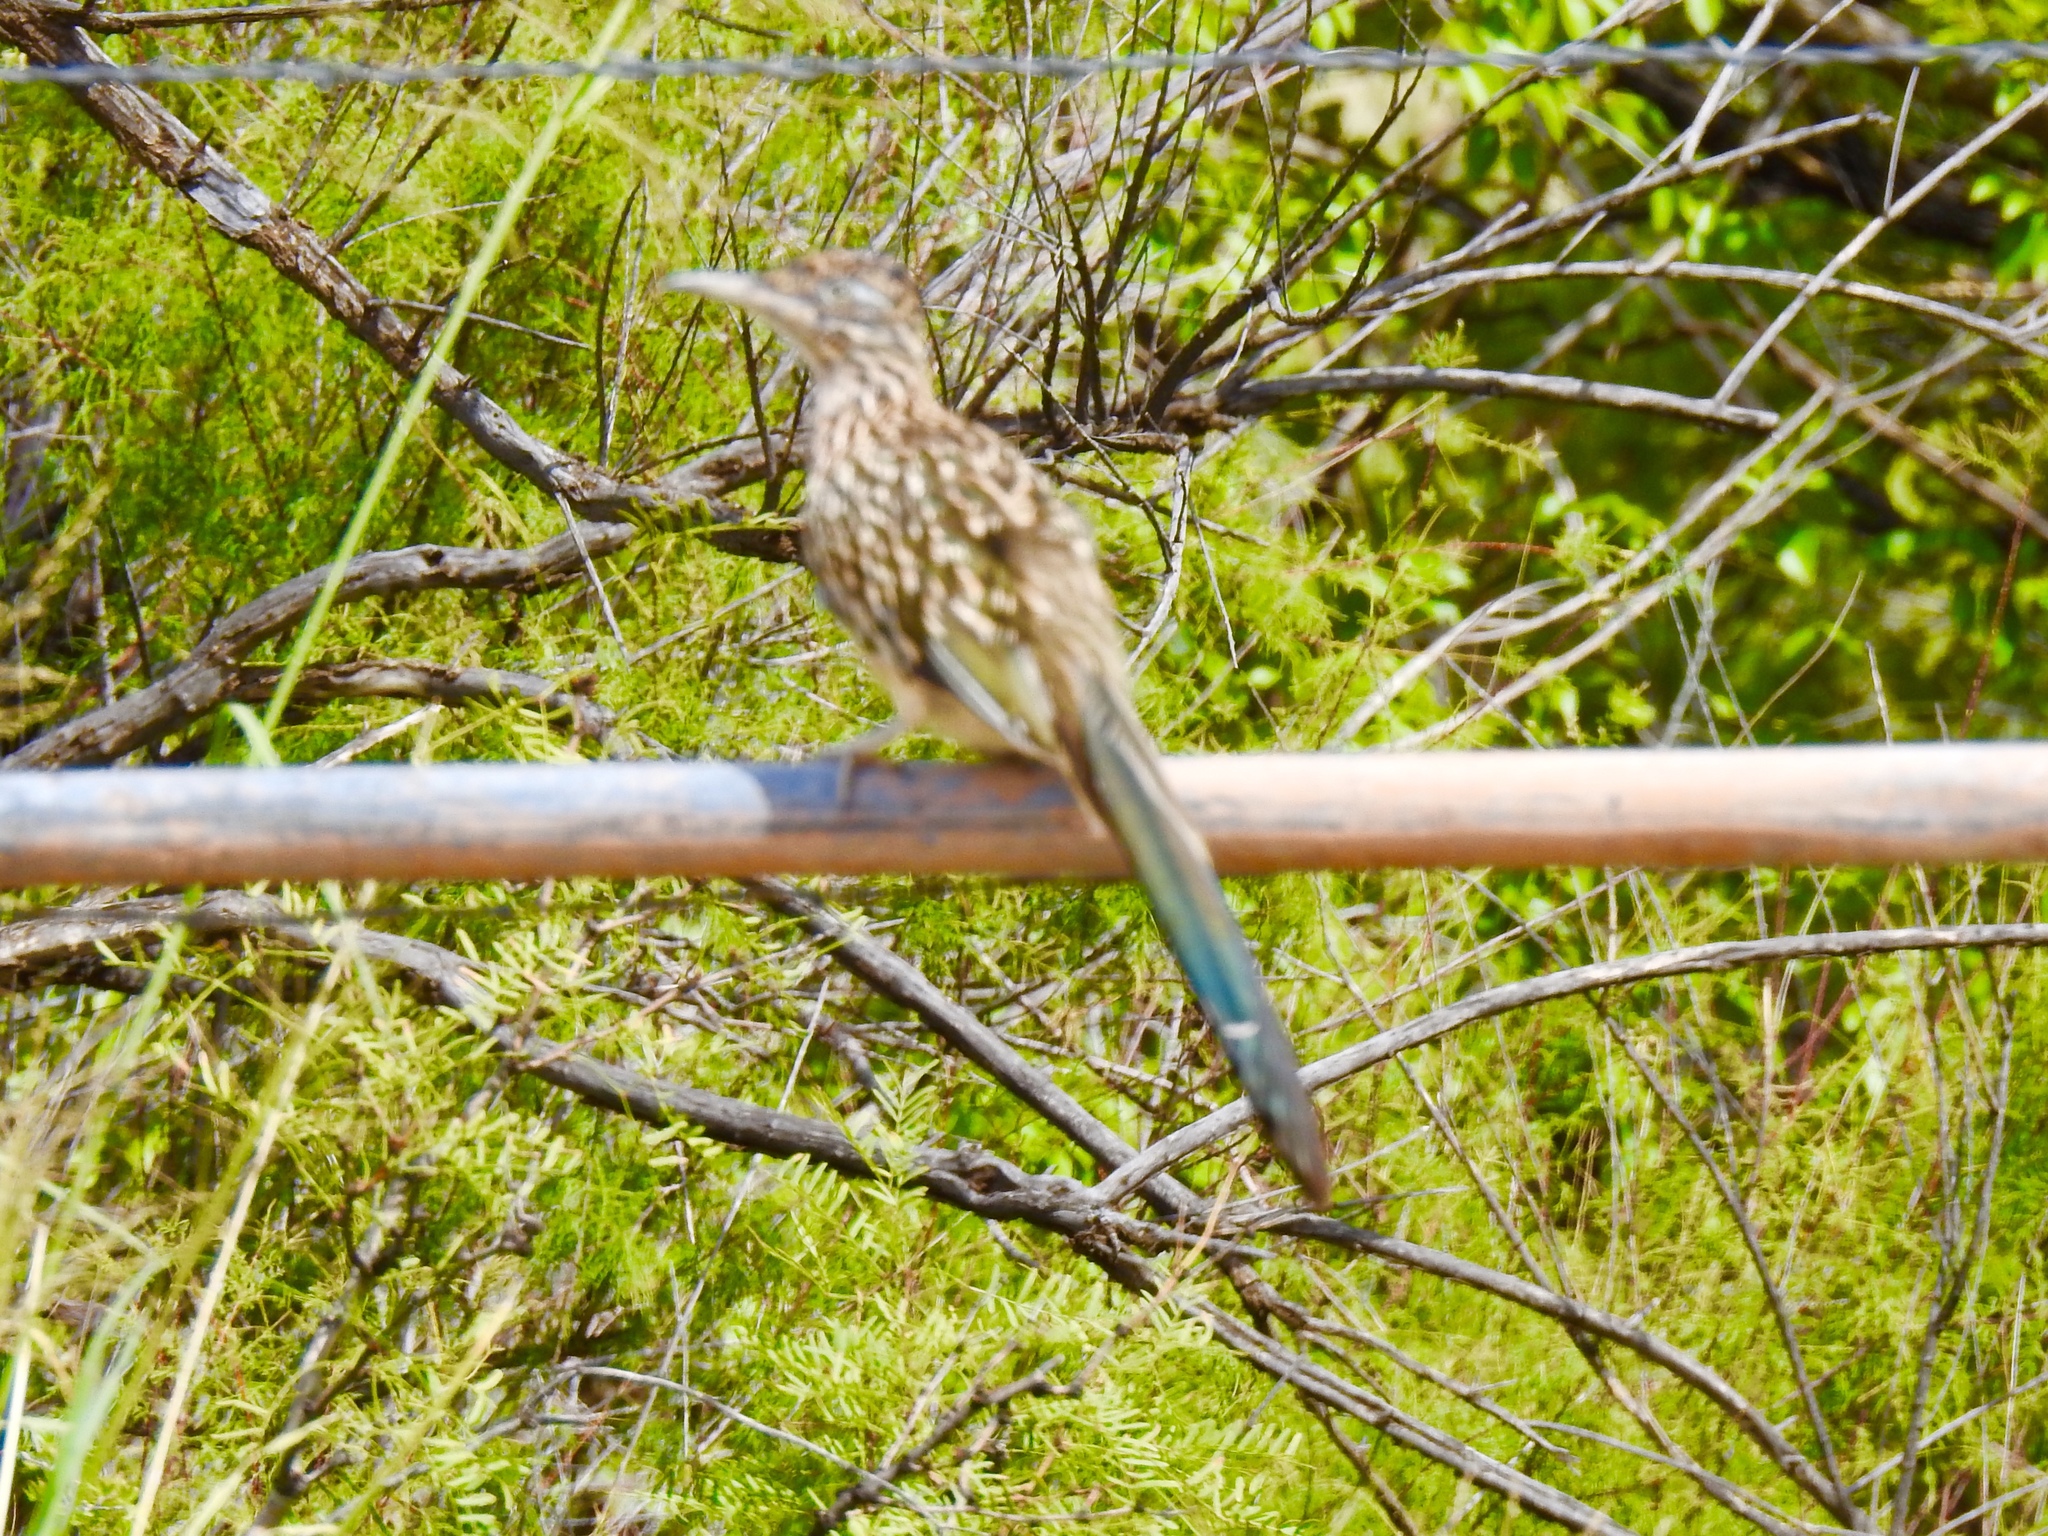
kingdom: Animalia
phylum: Chordata
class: Aves
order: Cuculiformes
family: Cuculidae
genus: Geococcyx
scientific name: Geococcyx californianus
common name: Greater roadrunner
